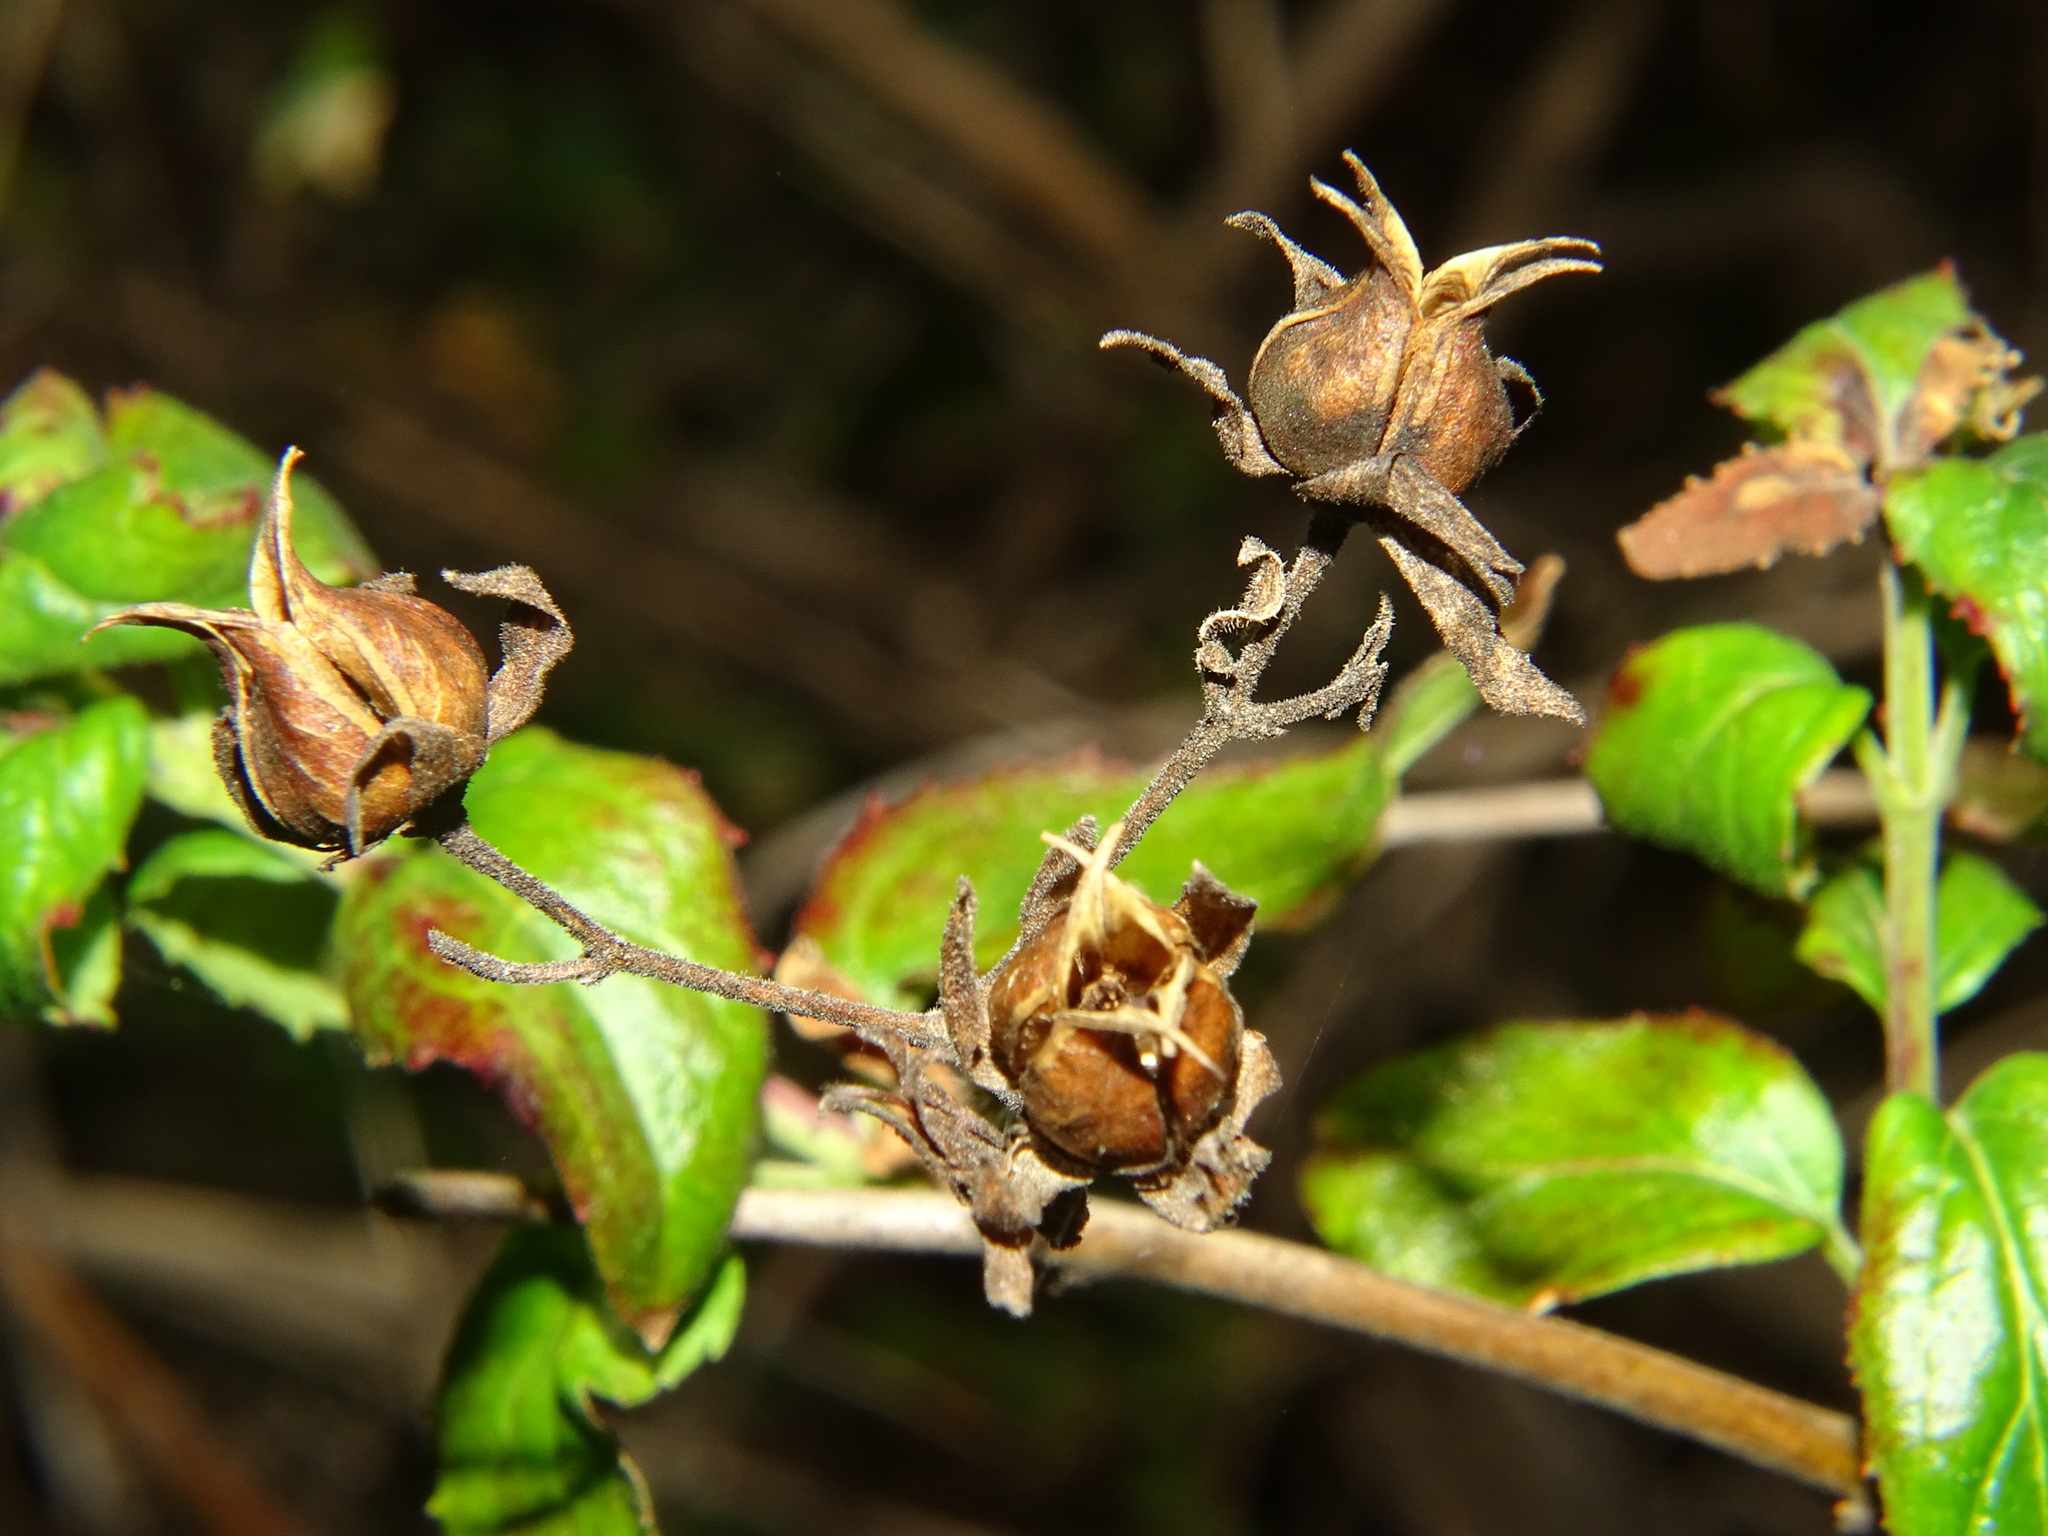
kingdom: Plantae
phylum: Tracheophyta
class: Magnoliopsida
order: Lamiales
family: Plantaginaceae
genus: Keckiella
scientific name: Keckiella cordifolia
